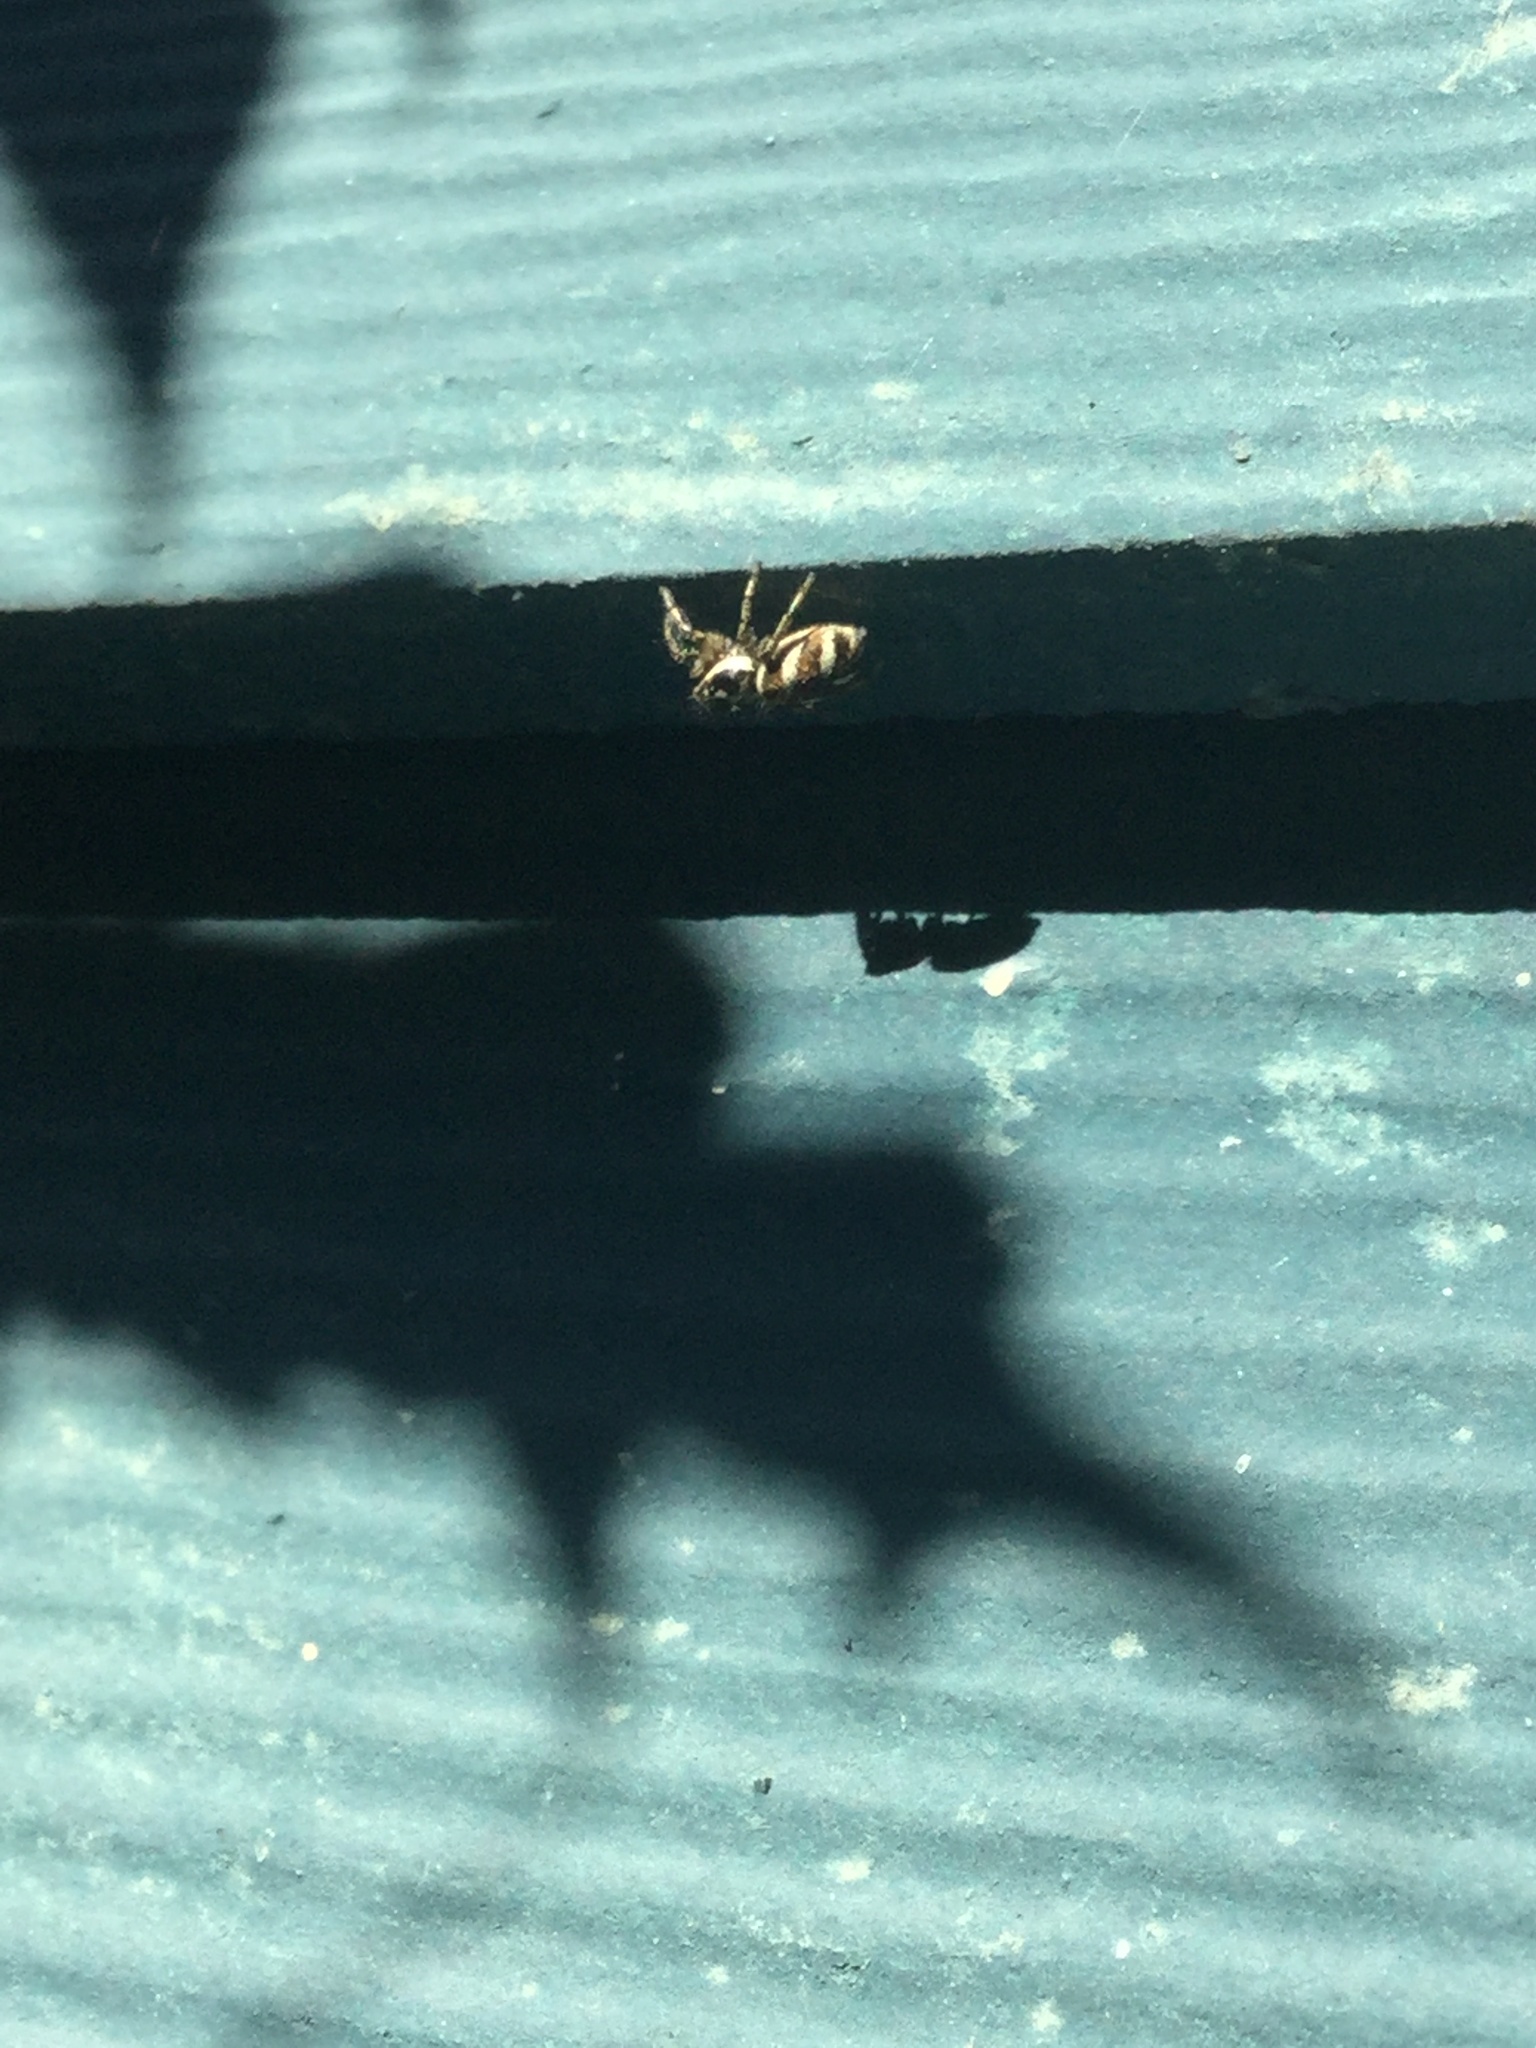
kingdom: Animalia
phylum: Arthropoda
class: Arachnida
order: Araneae
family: Salticidae
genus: Salticus
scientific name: Salticus scenicus
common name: Zebra jumper
